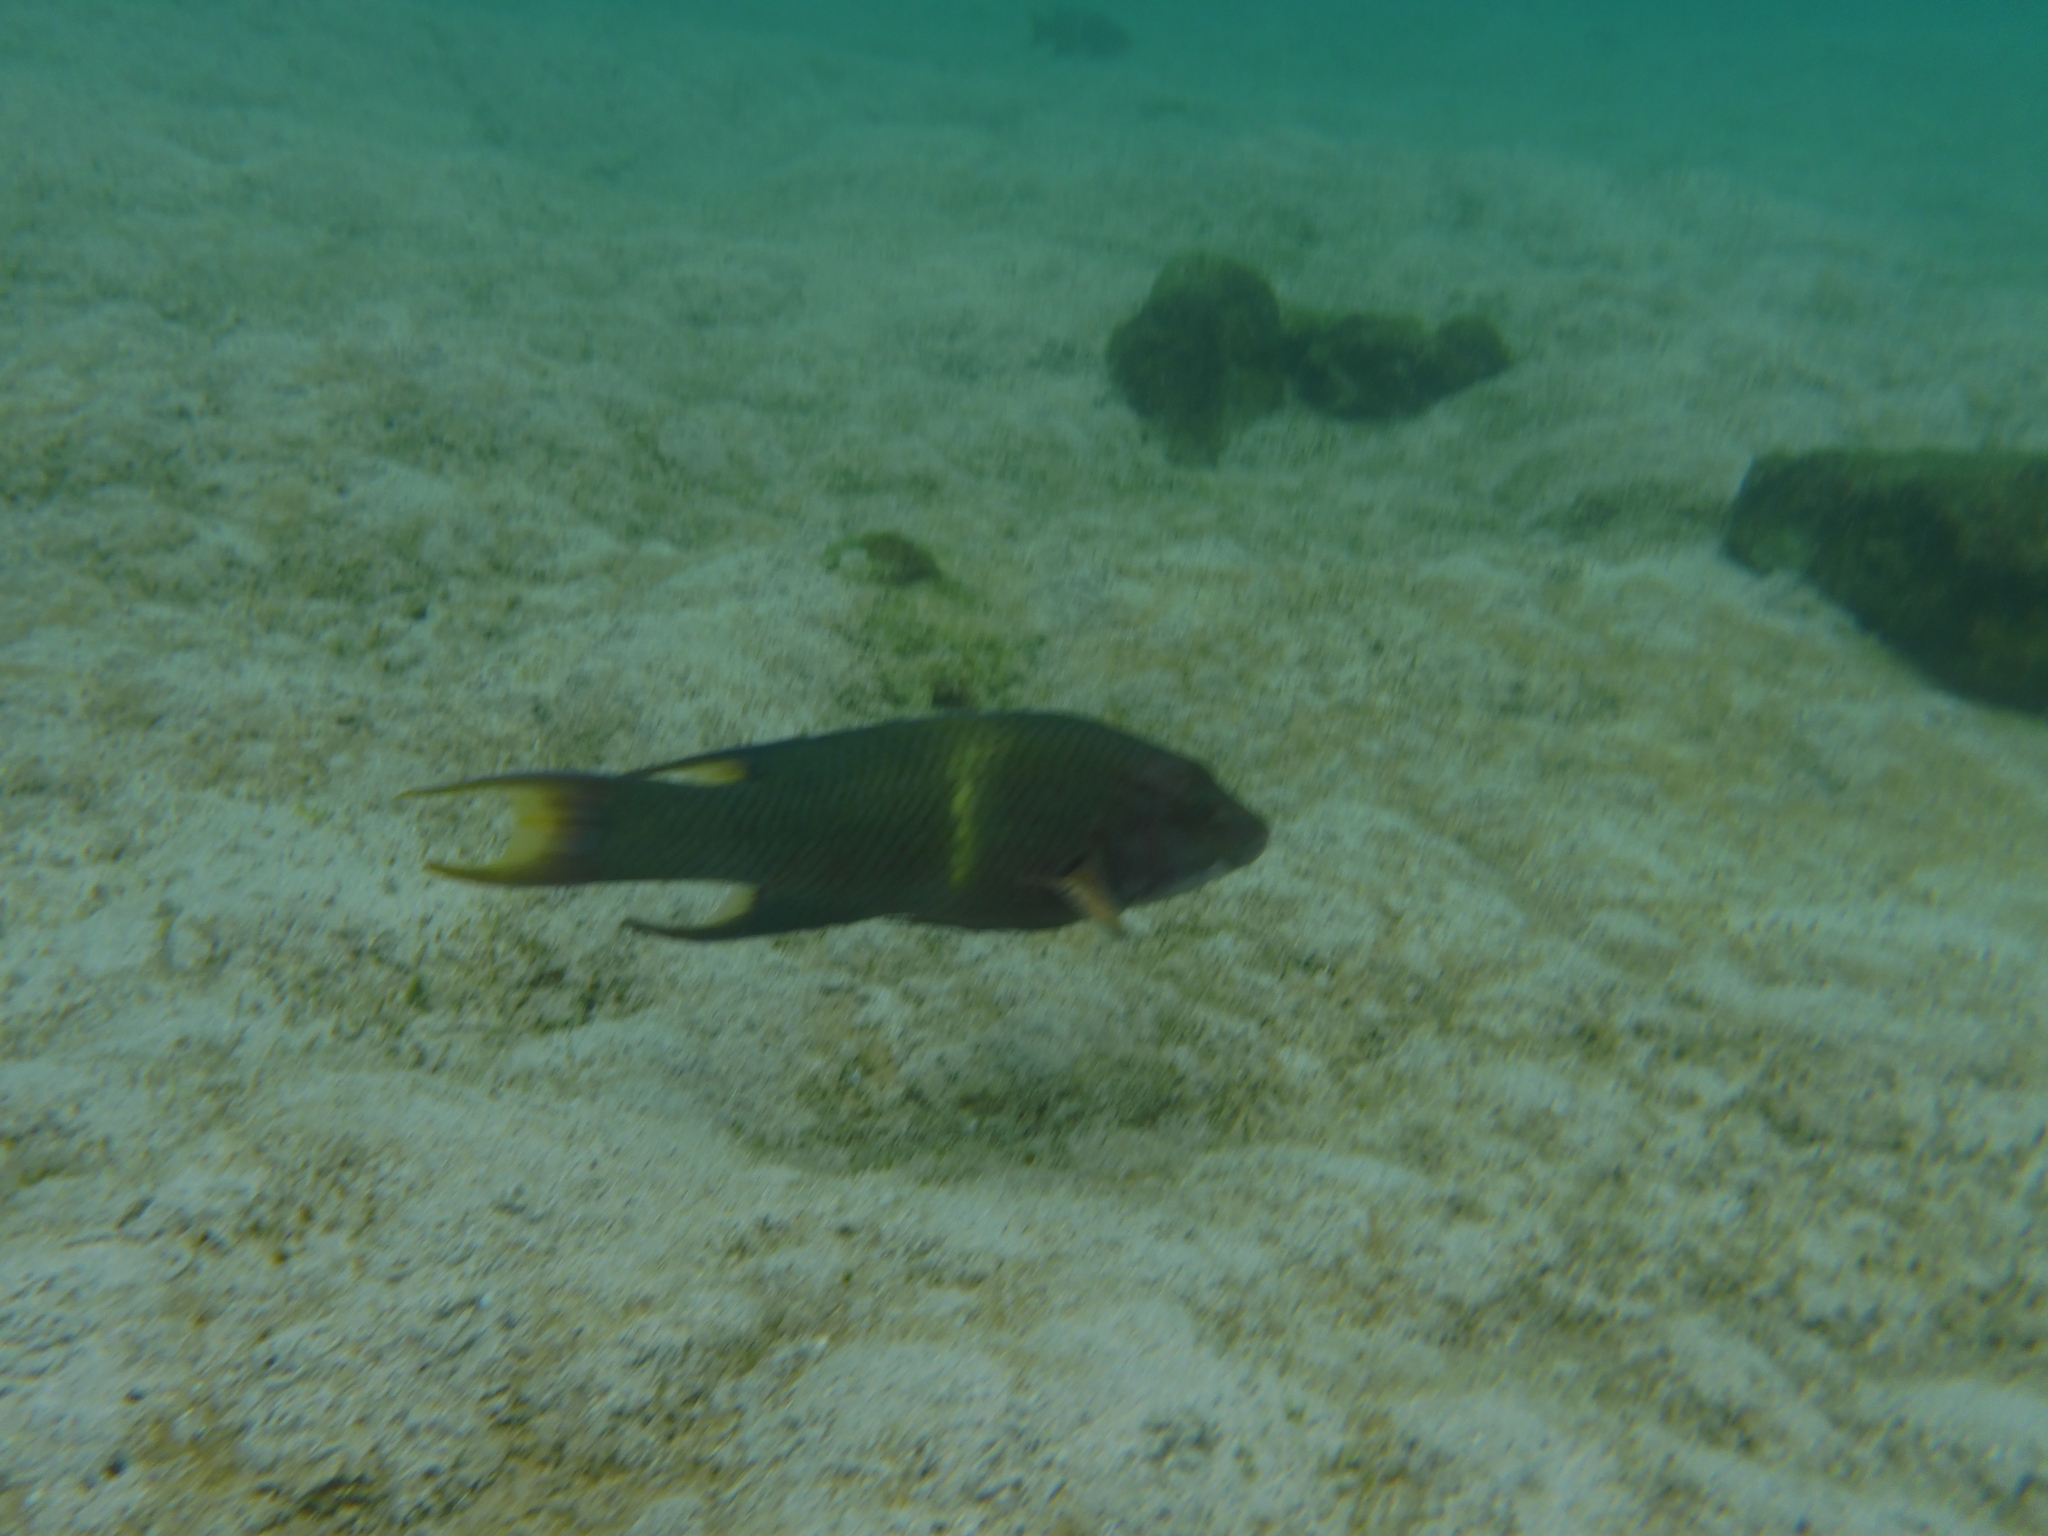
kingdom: Animalia
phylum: Chordata
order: Perciformes
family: Labridae
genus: Bodianus
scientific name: Bodianus diplotaenia
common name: Mexican hogfish
